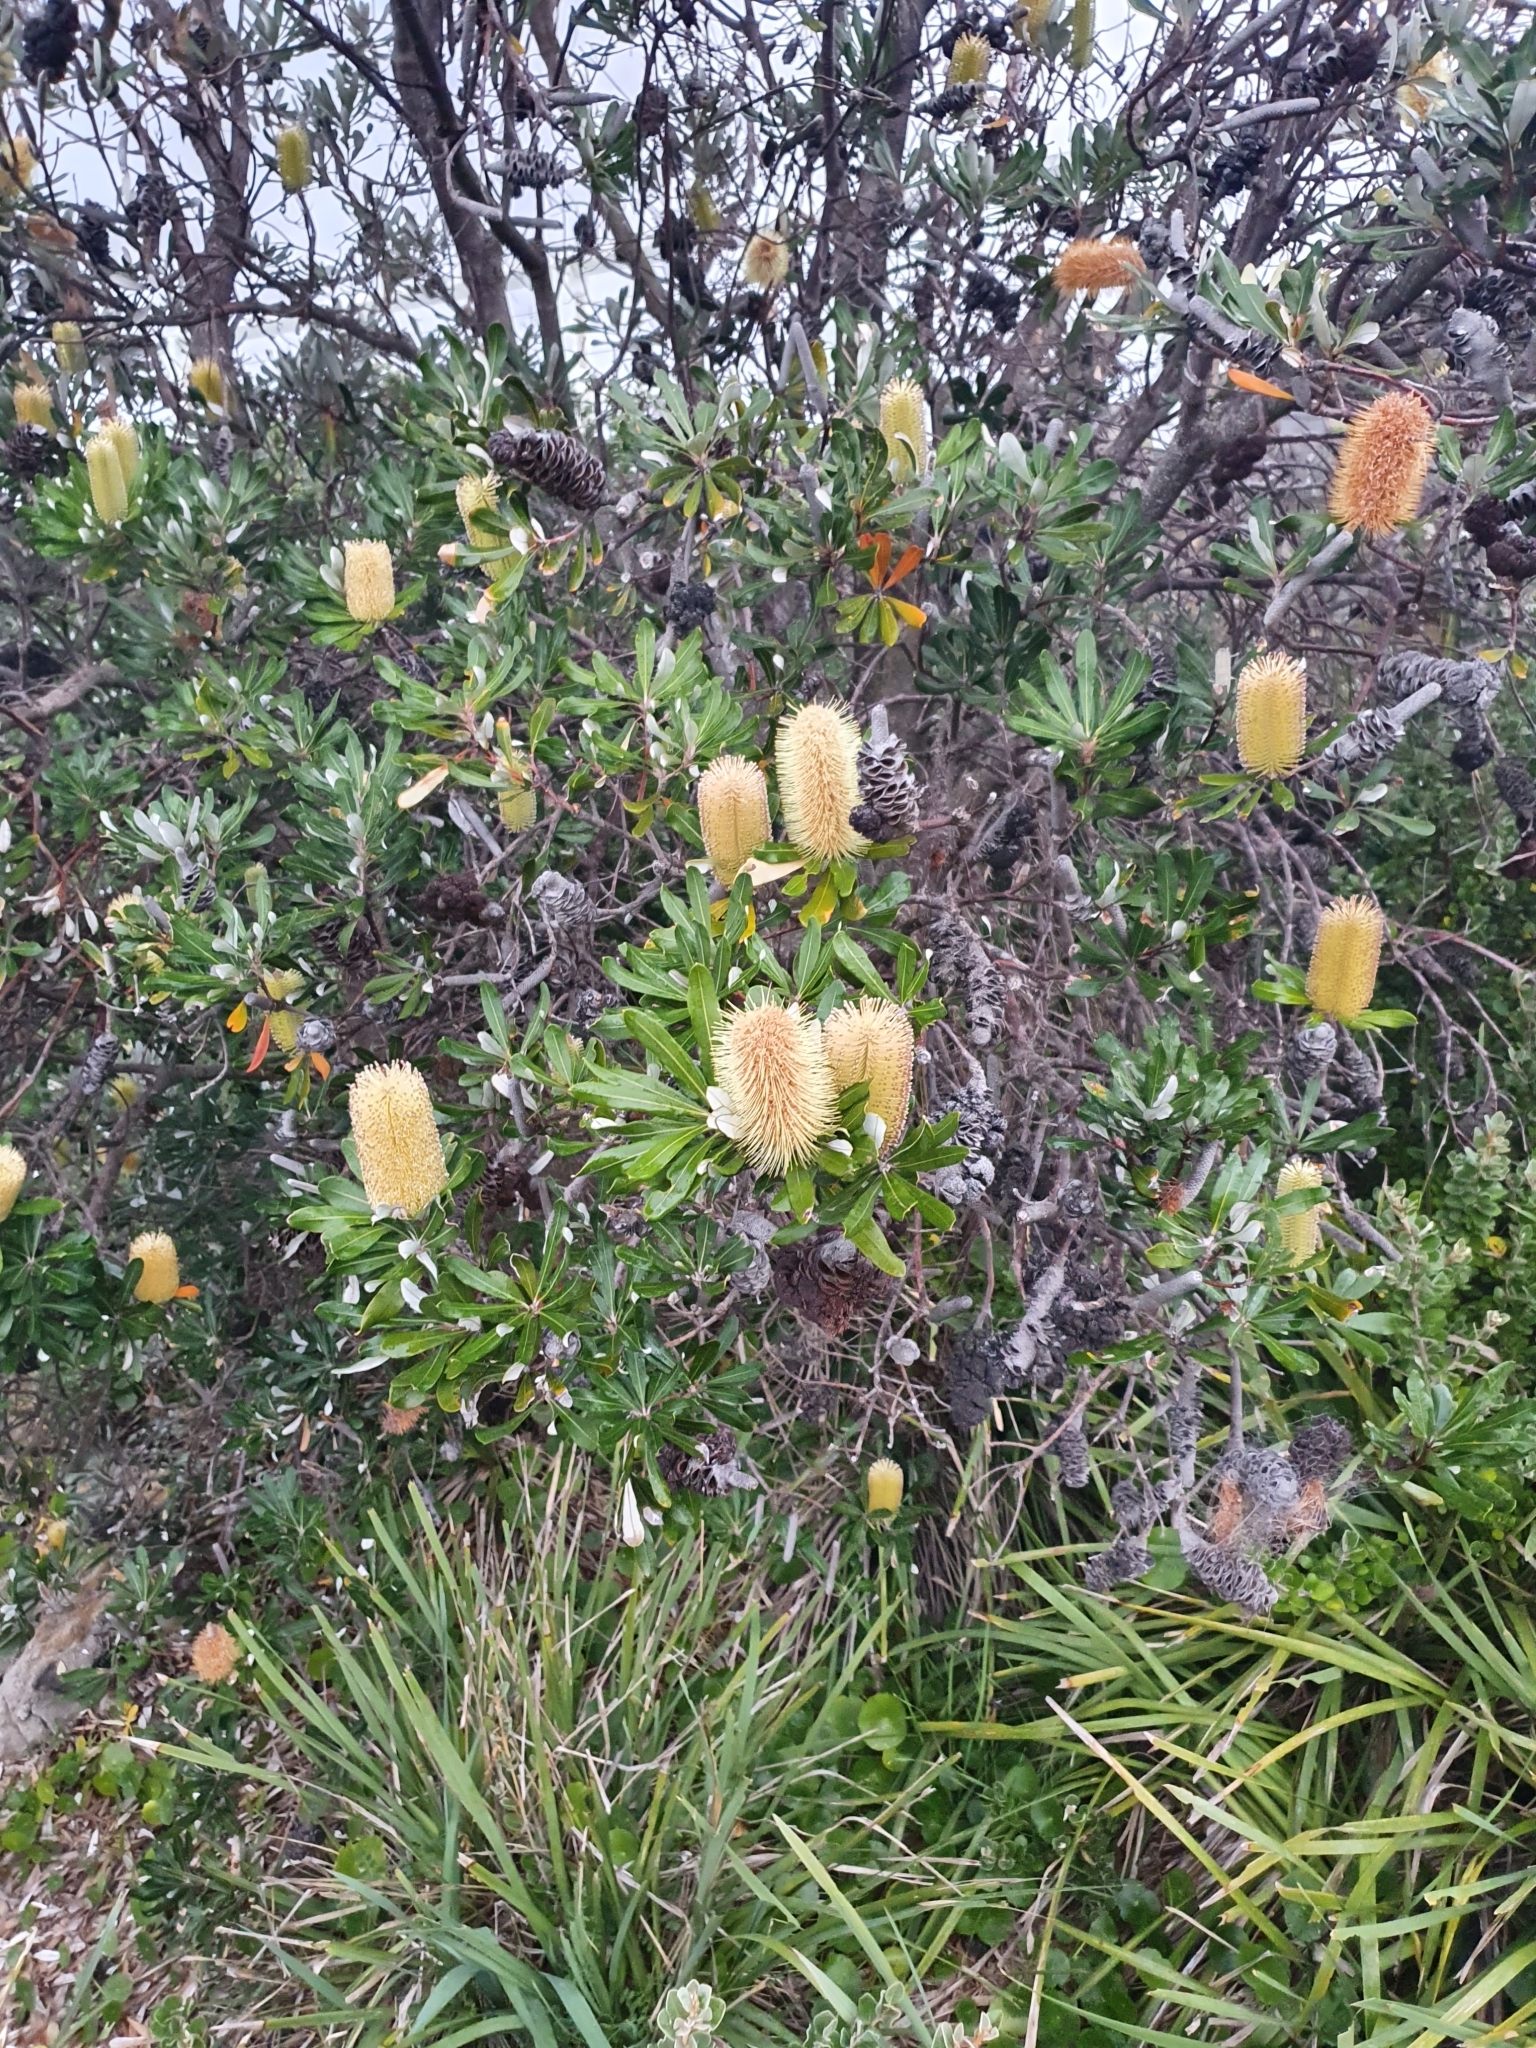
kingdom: Plantae
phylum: Tracheophyta
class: Magnoliopsida
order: Proteales
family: Proteaceae
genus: Banksia
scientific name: Banksia integrifolia
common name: White-honeysuckle
